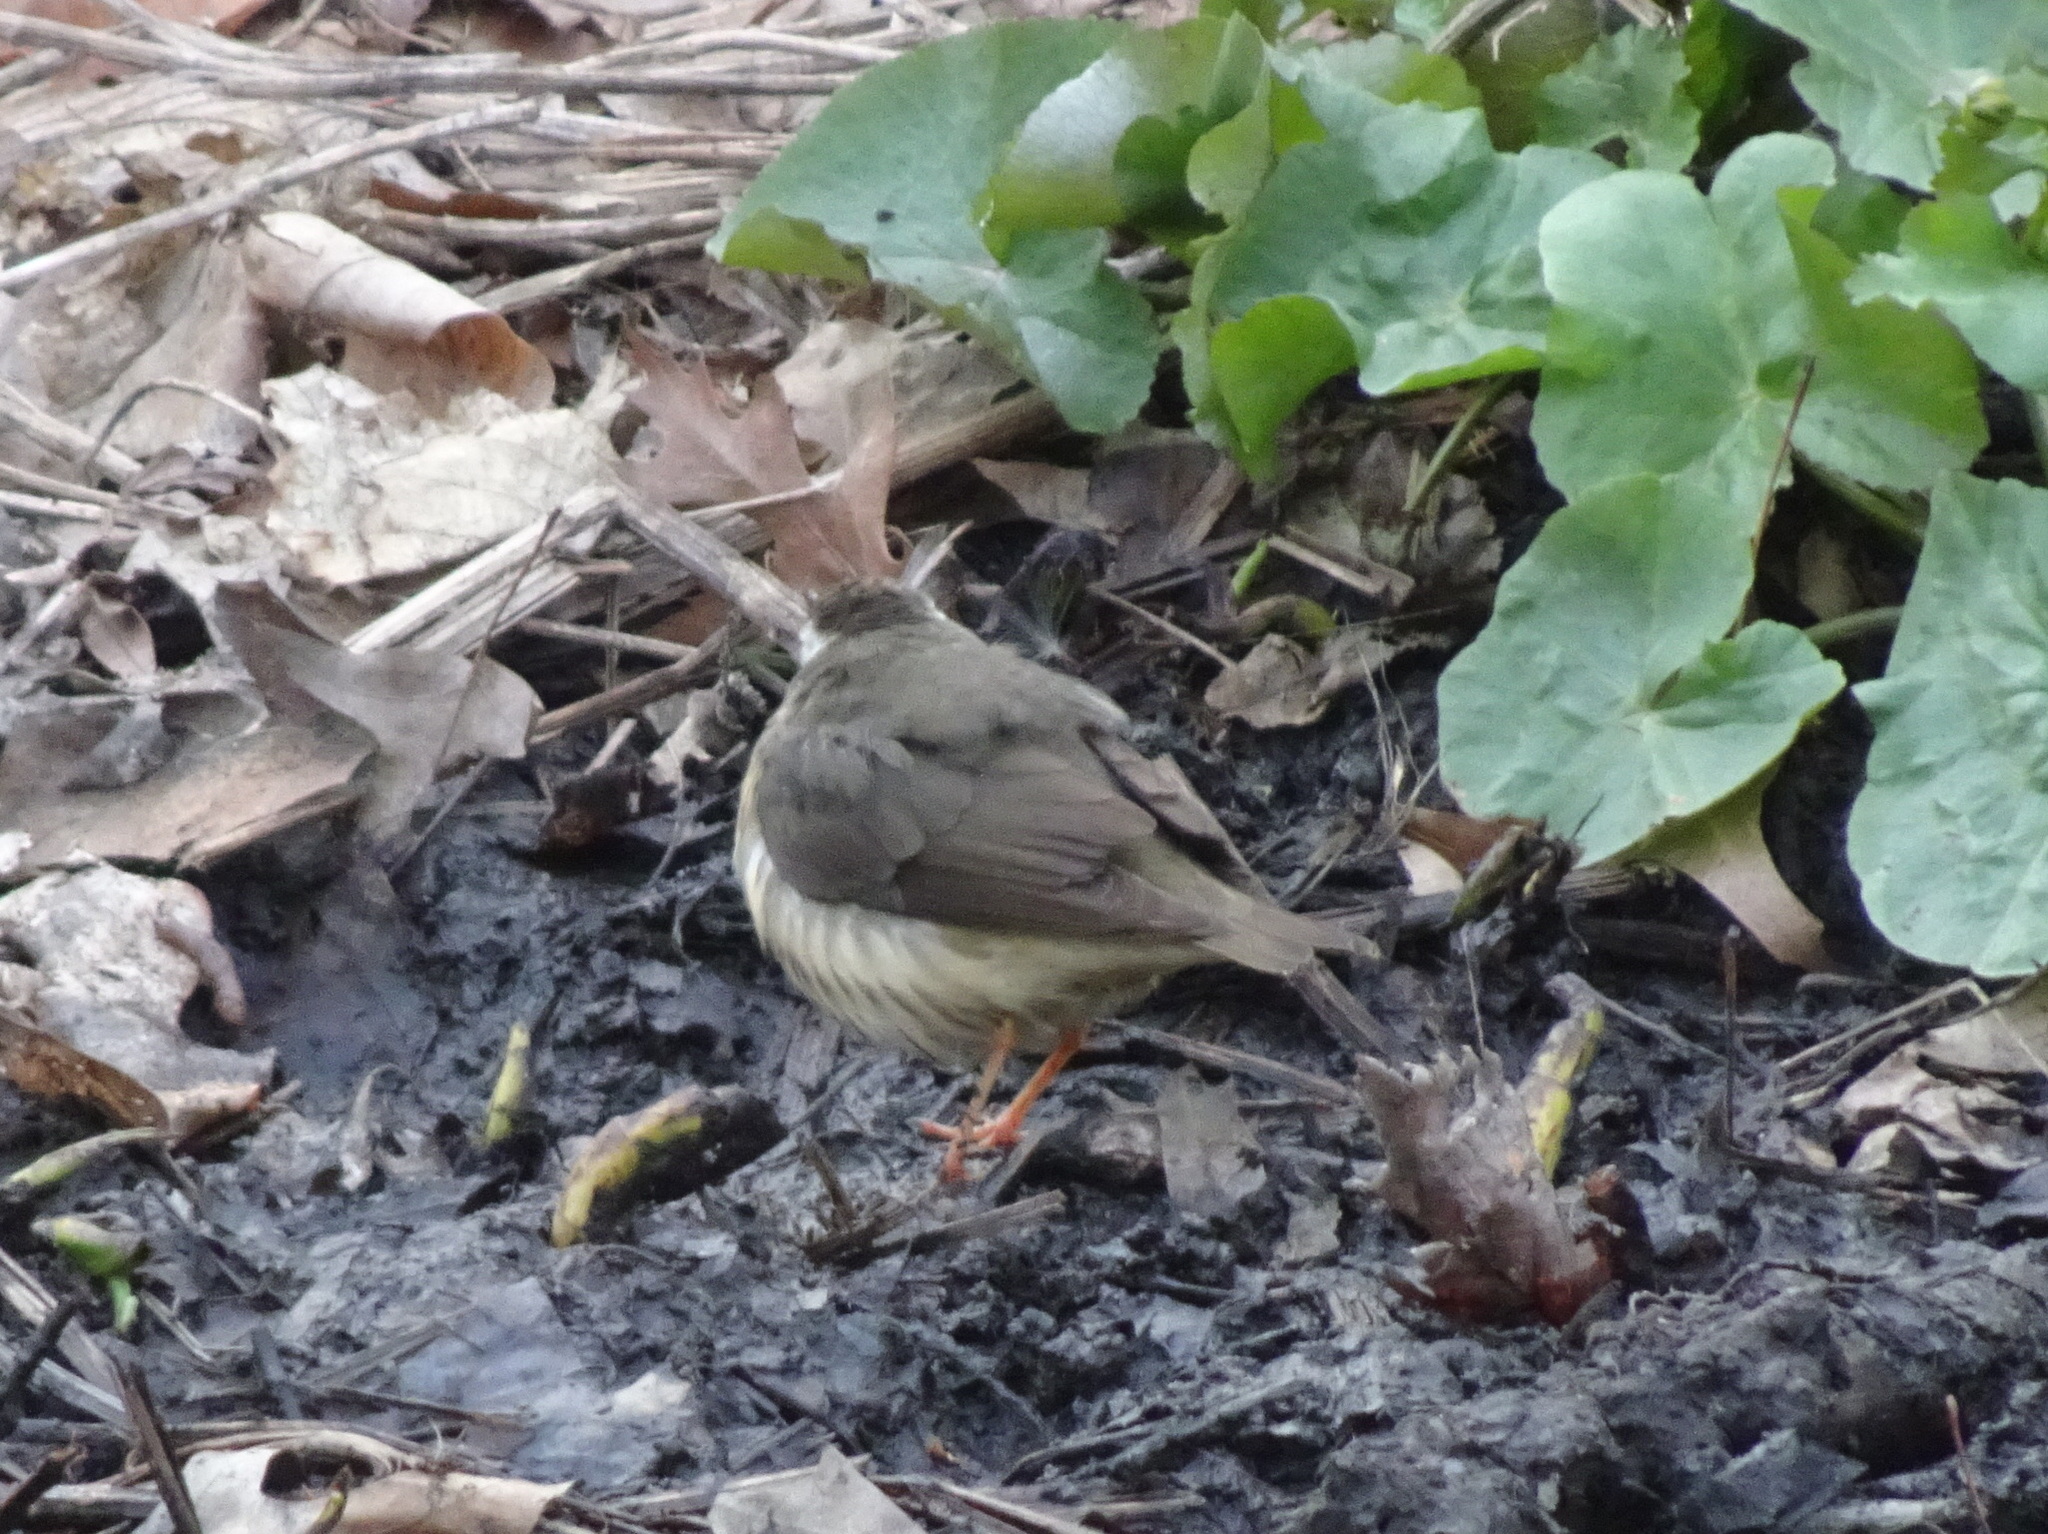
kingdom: Animalia
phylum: Chordata
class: Aves
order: Passeriformes
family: Parulidae
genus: Parkesia
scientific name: Parkesia motacilla
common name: Louisiana waterthrush
